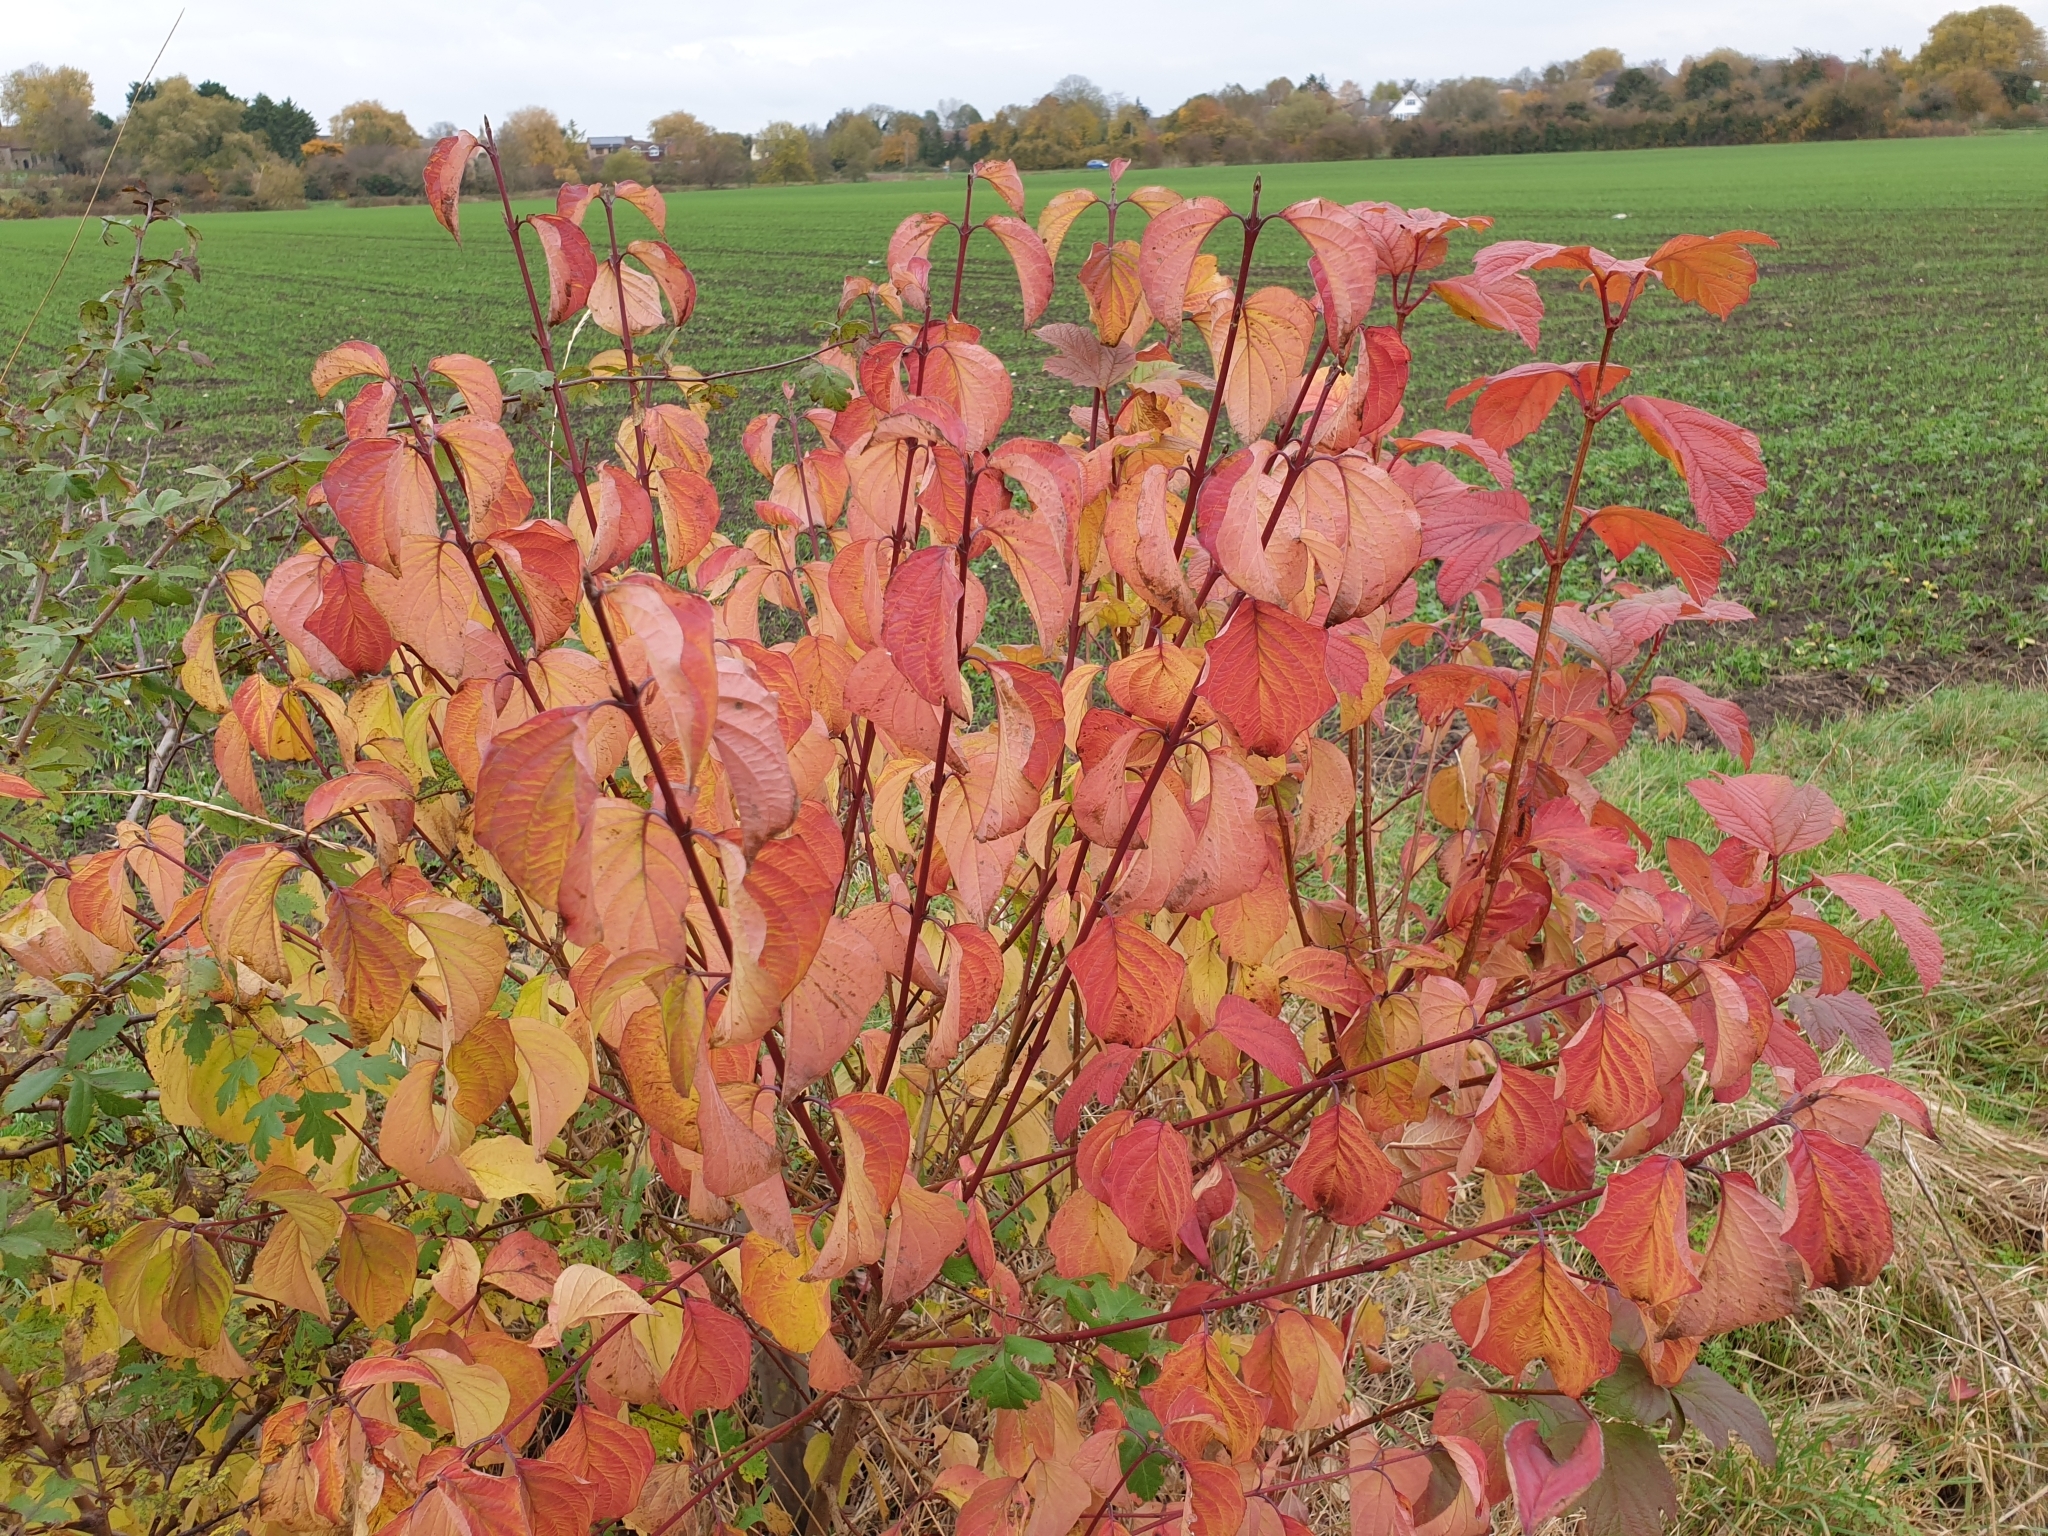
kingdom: Plantae
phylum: Tracheophyta
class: Magnoliopsida
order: Cornales
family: Cornaceae
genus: Cornus
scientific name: Cornus sanguinea
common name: Dogwood
